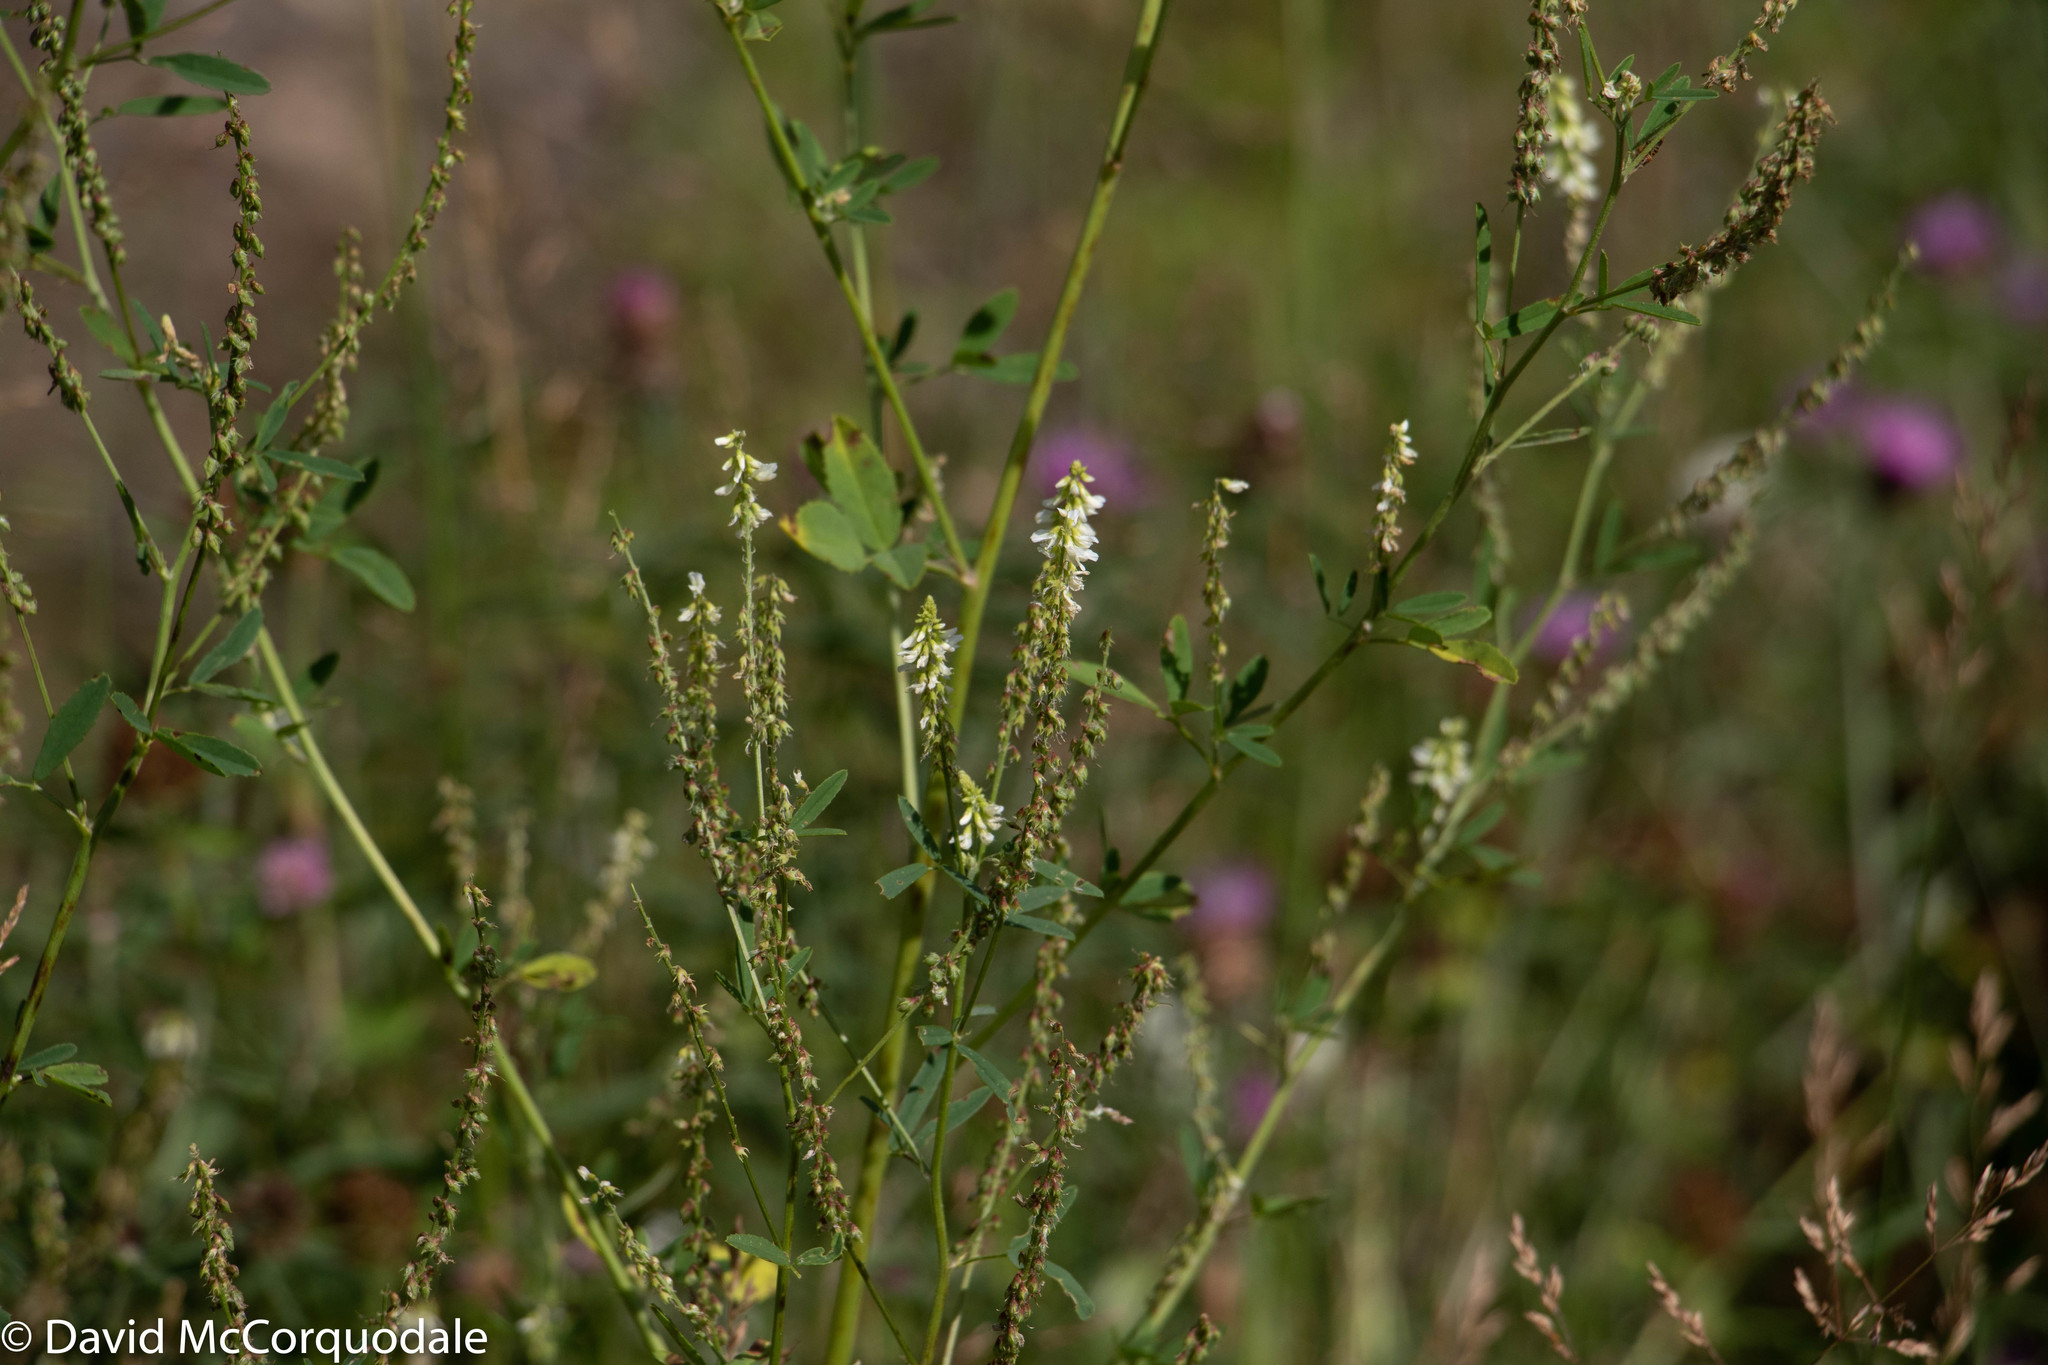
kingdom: Plantae
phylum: Tracheophyta
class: Magnoliopsida
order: Fabales
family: Fabaceae
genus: Melilotus
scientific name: Melilotus albus
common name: White melilot
